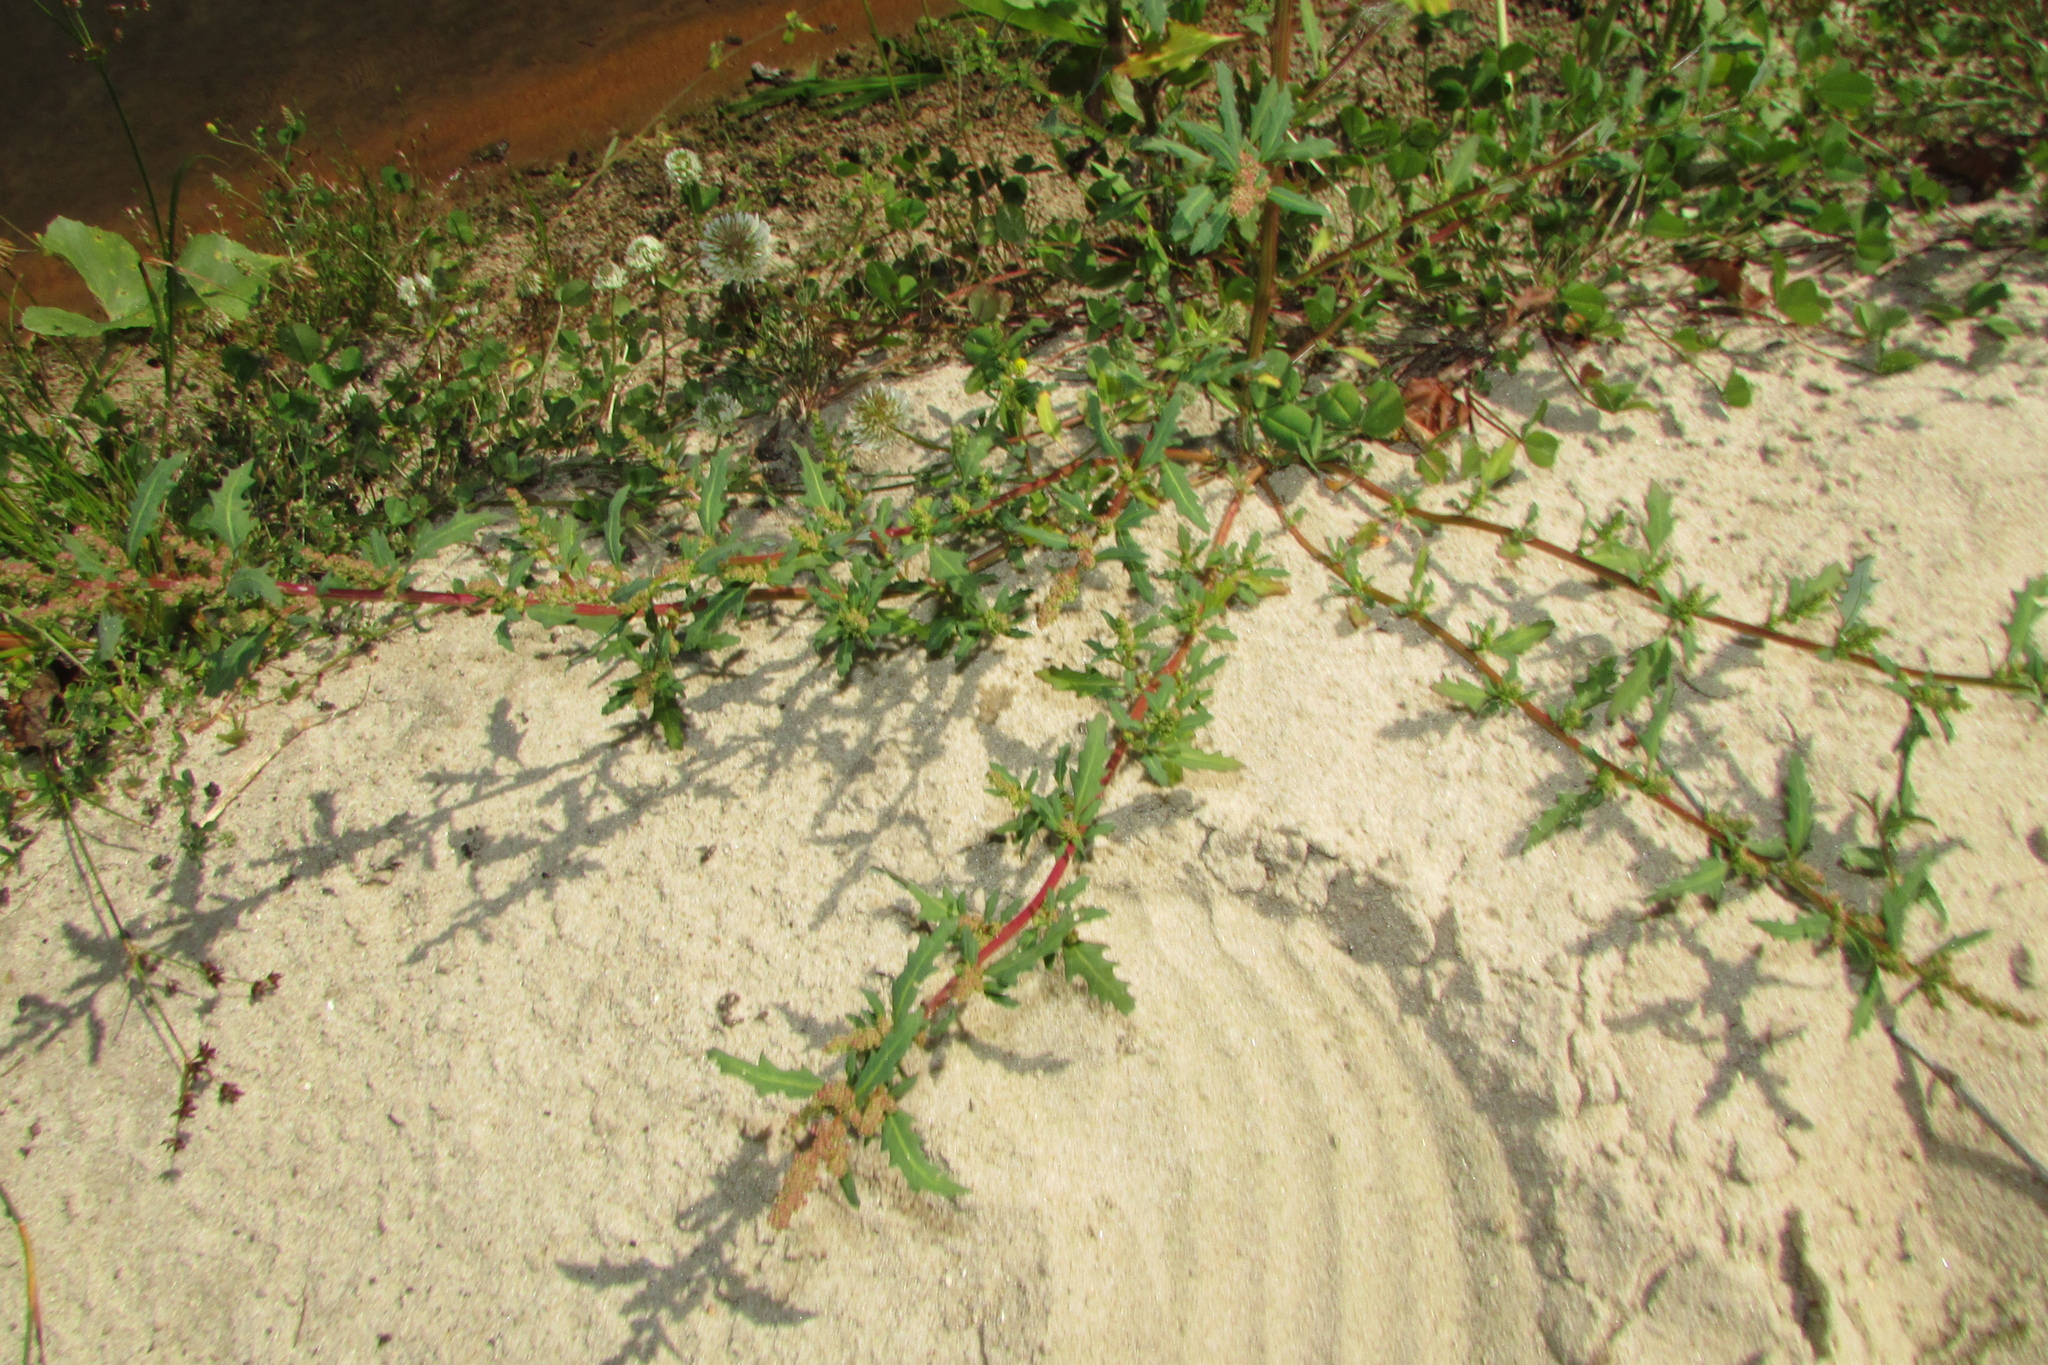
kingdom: Plantae
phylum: Tracheophyta
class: Magnoliopsida
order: Caryophyllales
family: Amaranthaceae
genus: Oxybasis
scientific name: Oxybasis glauca
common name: Glaucous goosefoot
